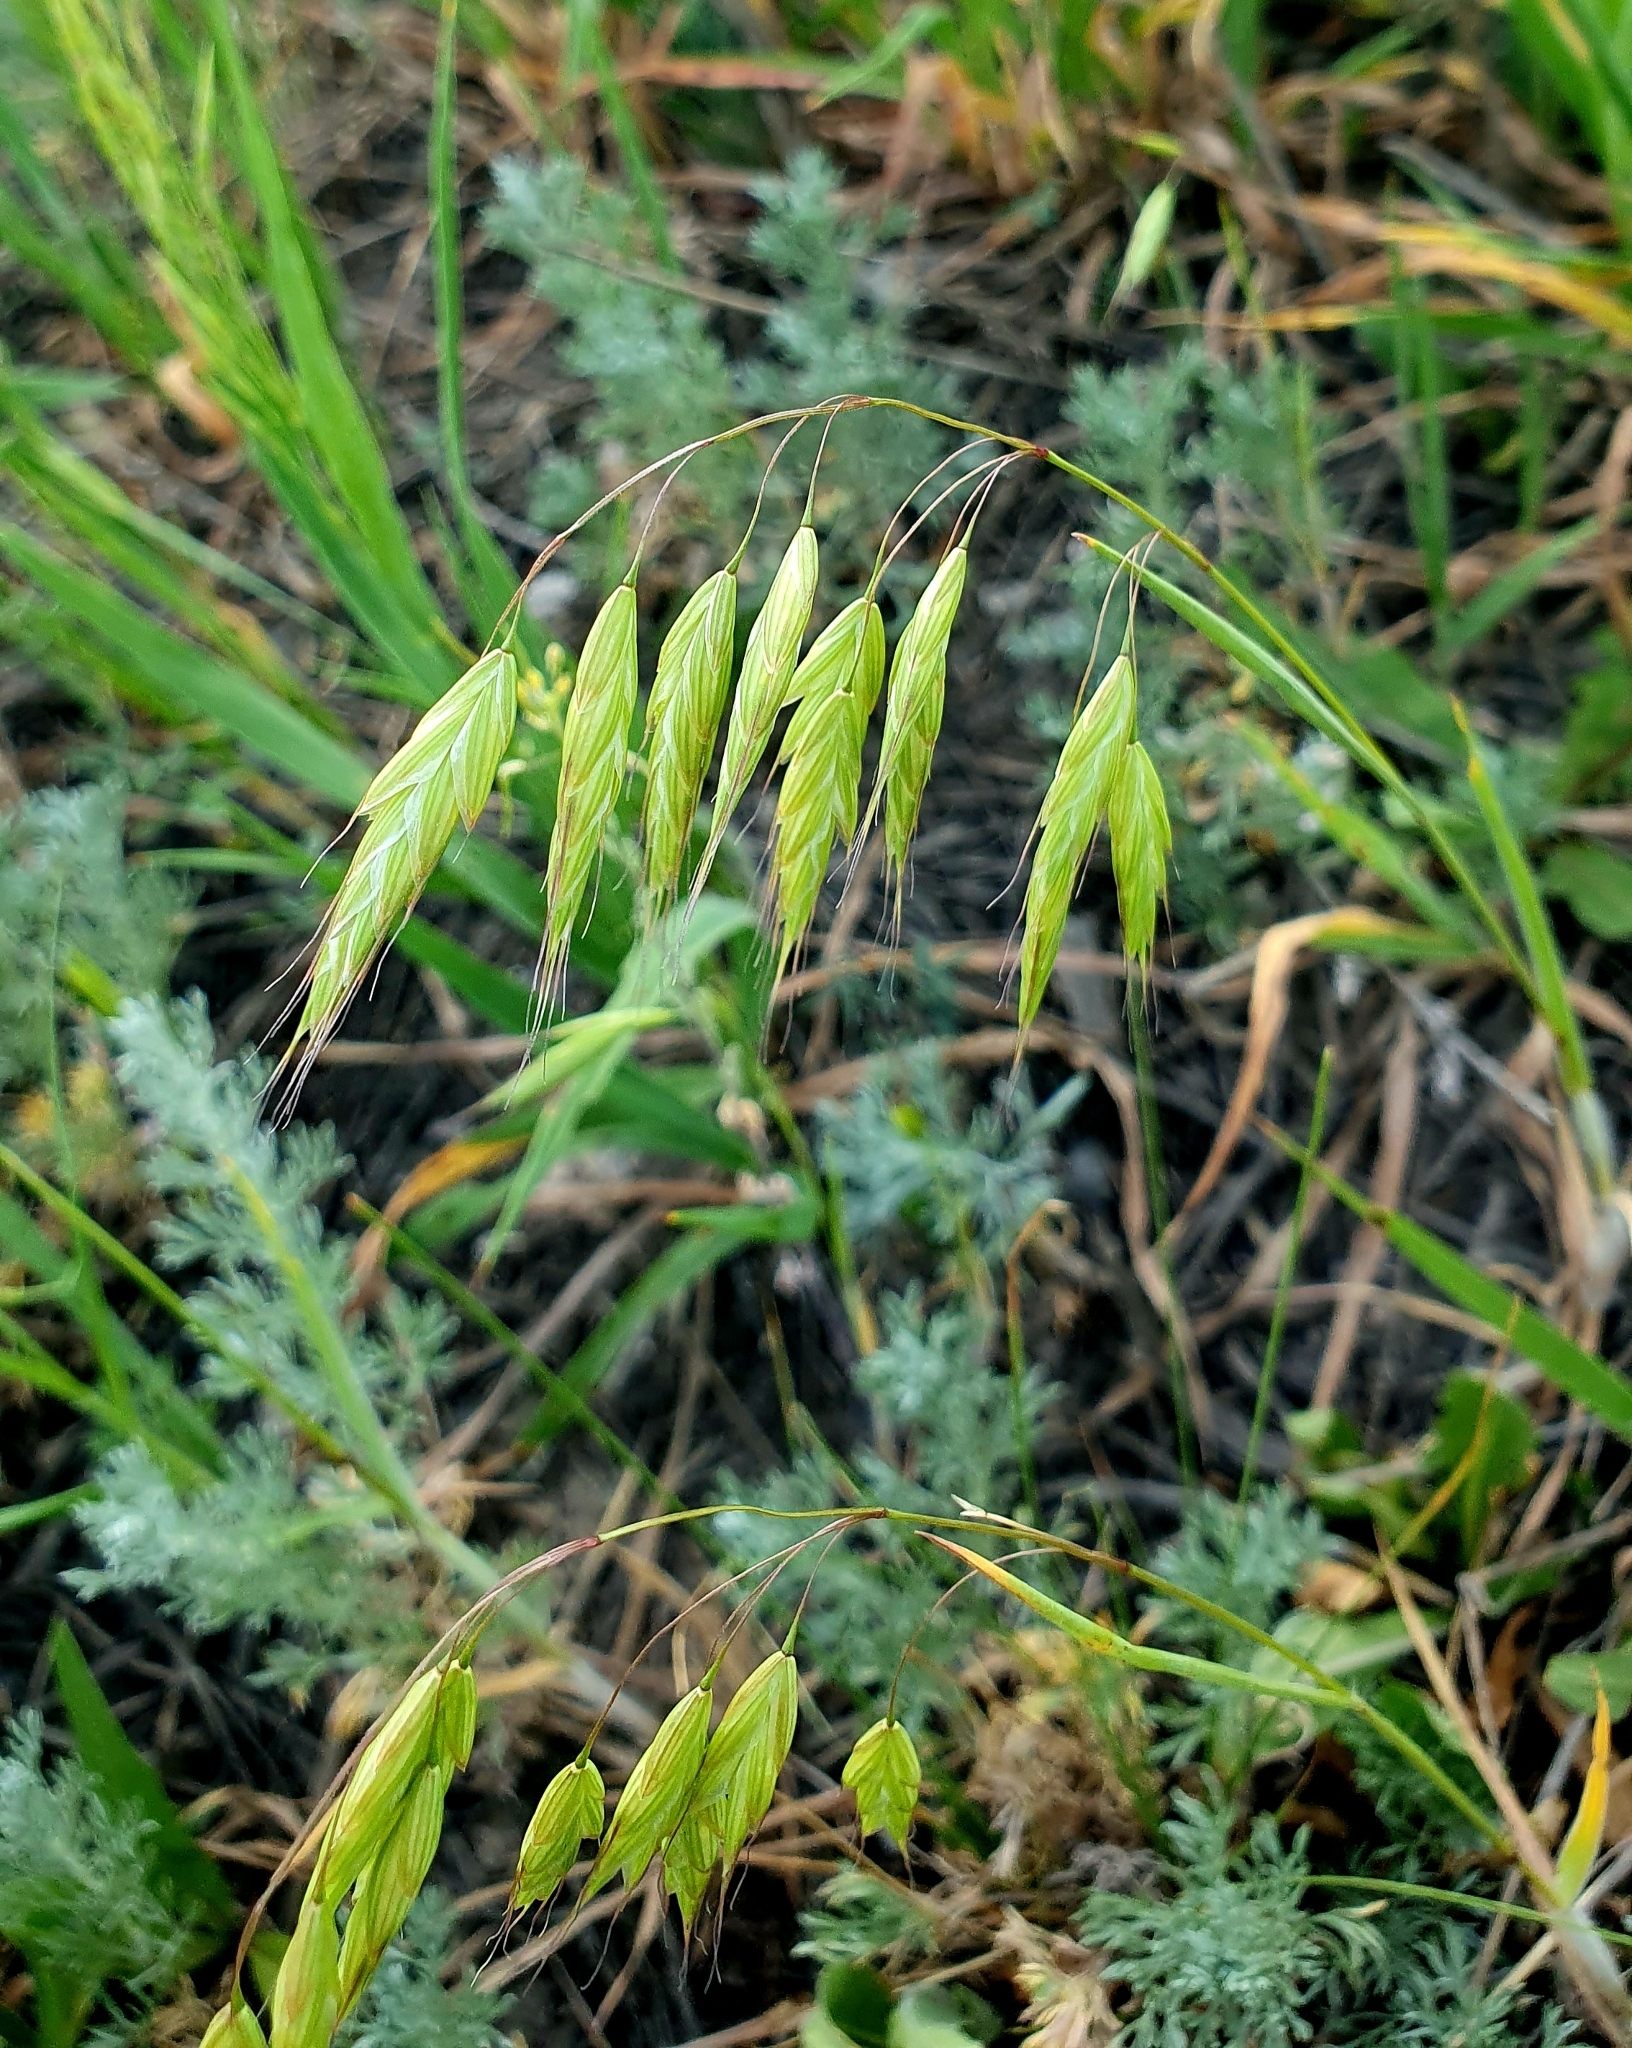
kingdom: Plantae
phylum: Tracheophyta
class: Liliopsida
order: Poales
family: Poaceae
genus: Bromus
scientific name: Bromus squarrosus
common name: Corn brome
